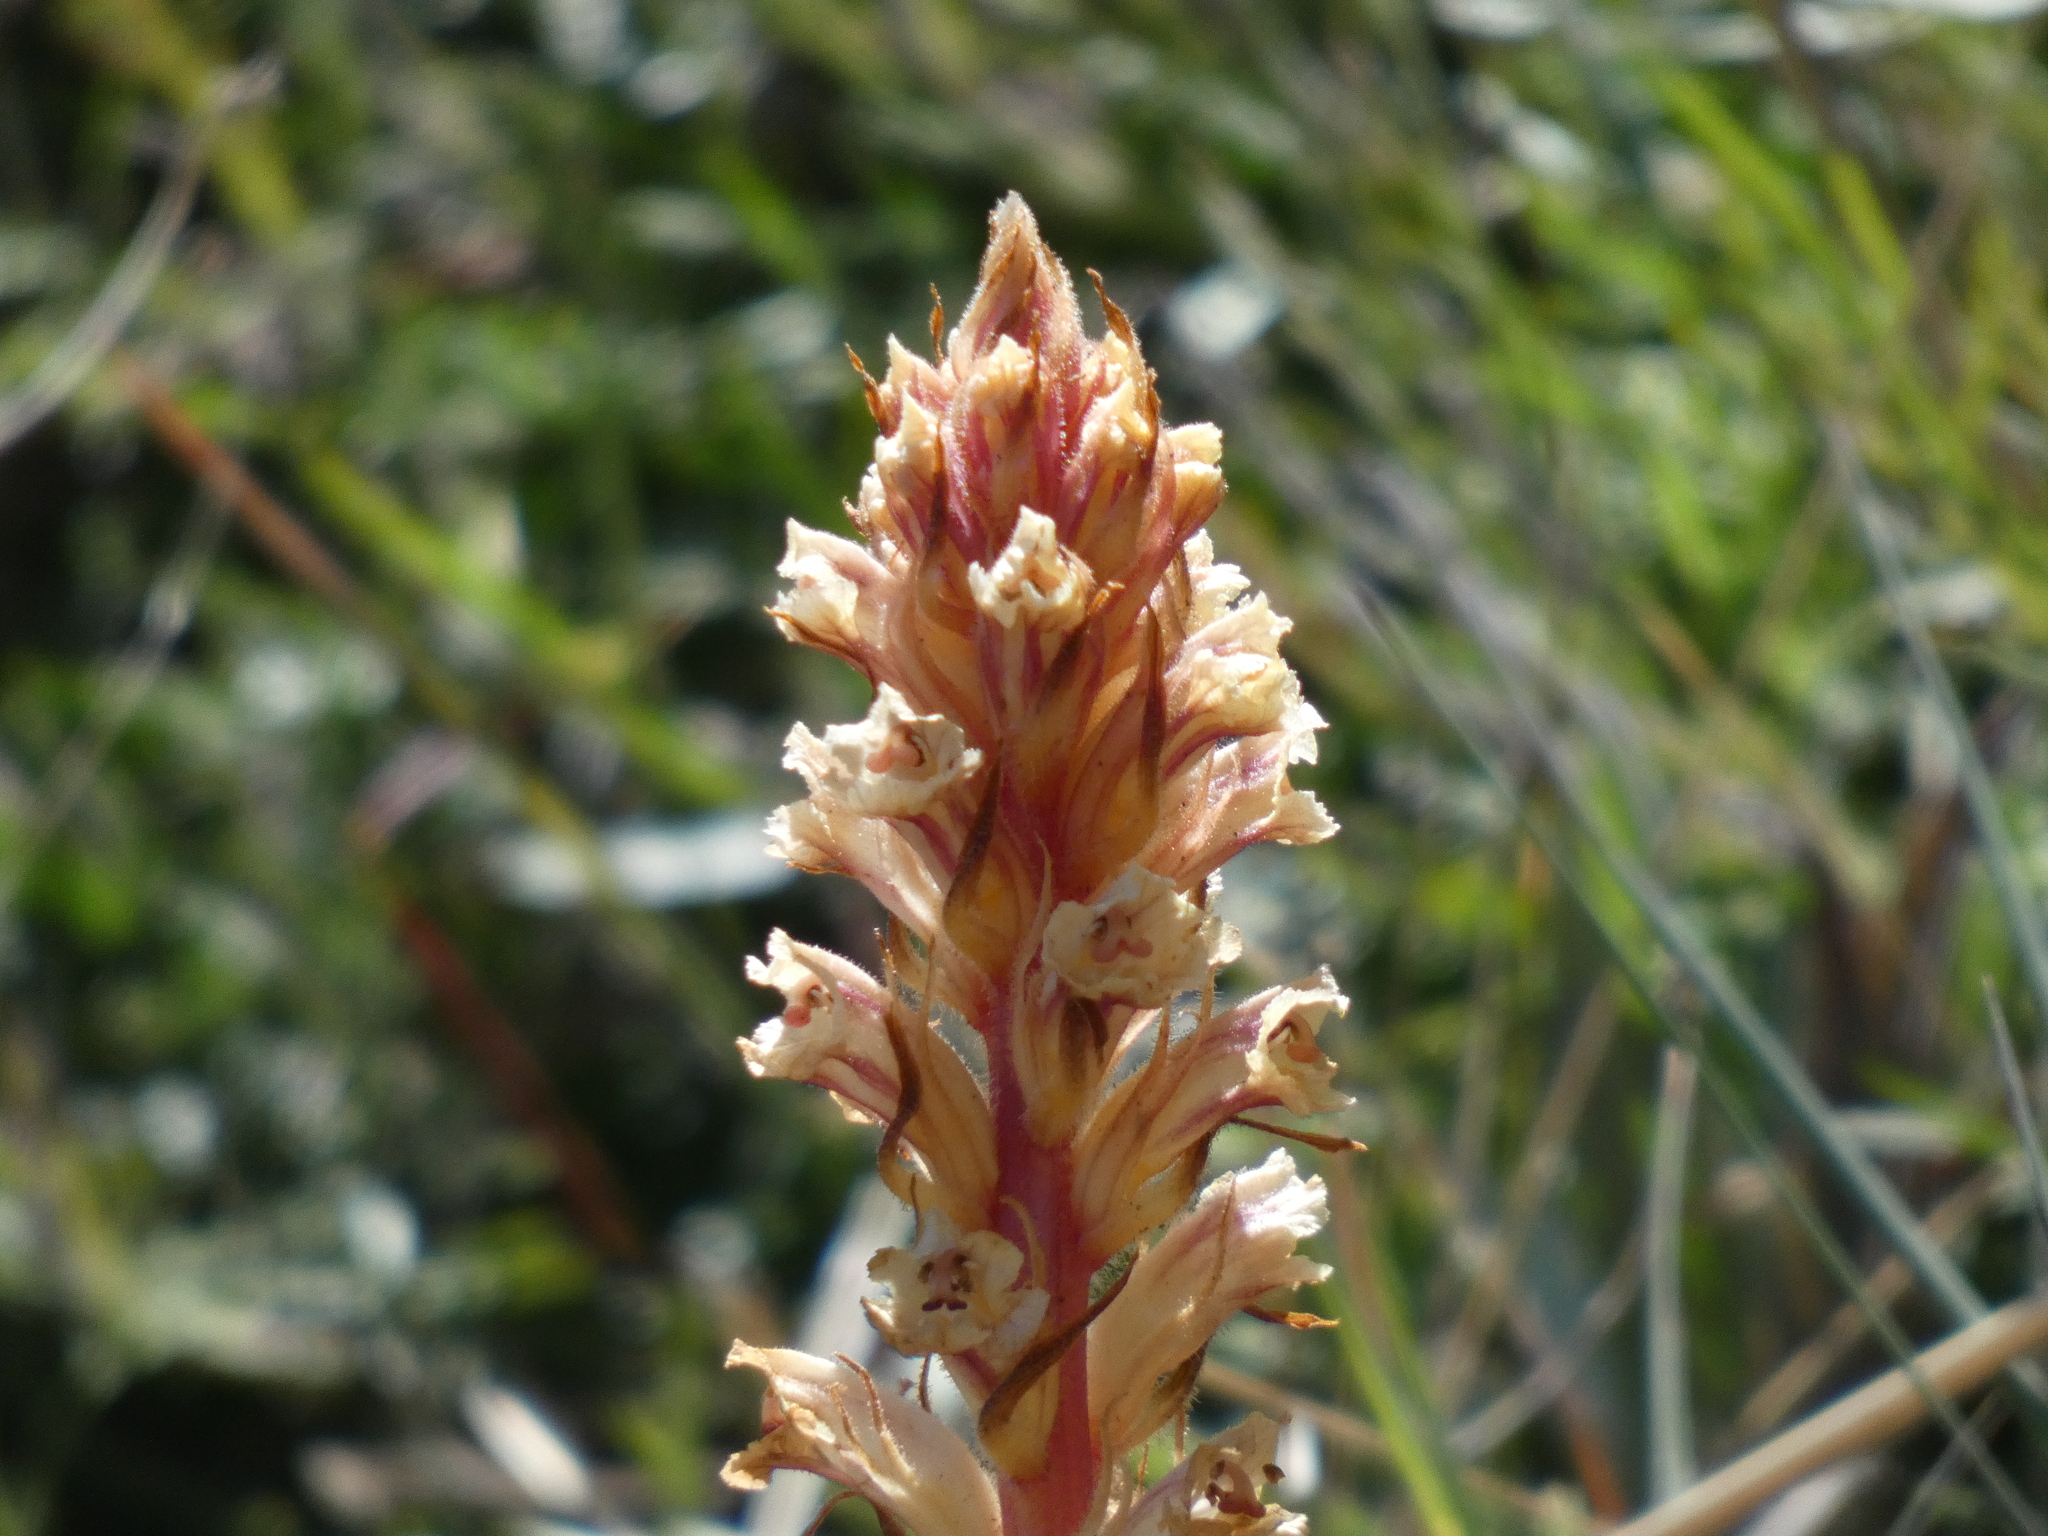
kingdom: Plantae
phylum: Tracheophyta
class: Magnoliopsida
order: Lamiales
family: Orobanchaceae
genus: Orobanche
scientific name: Orobanche minor
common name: Common broomrape
